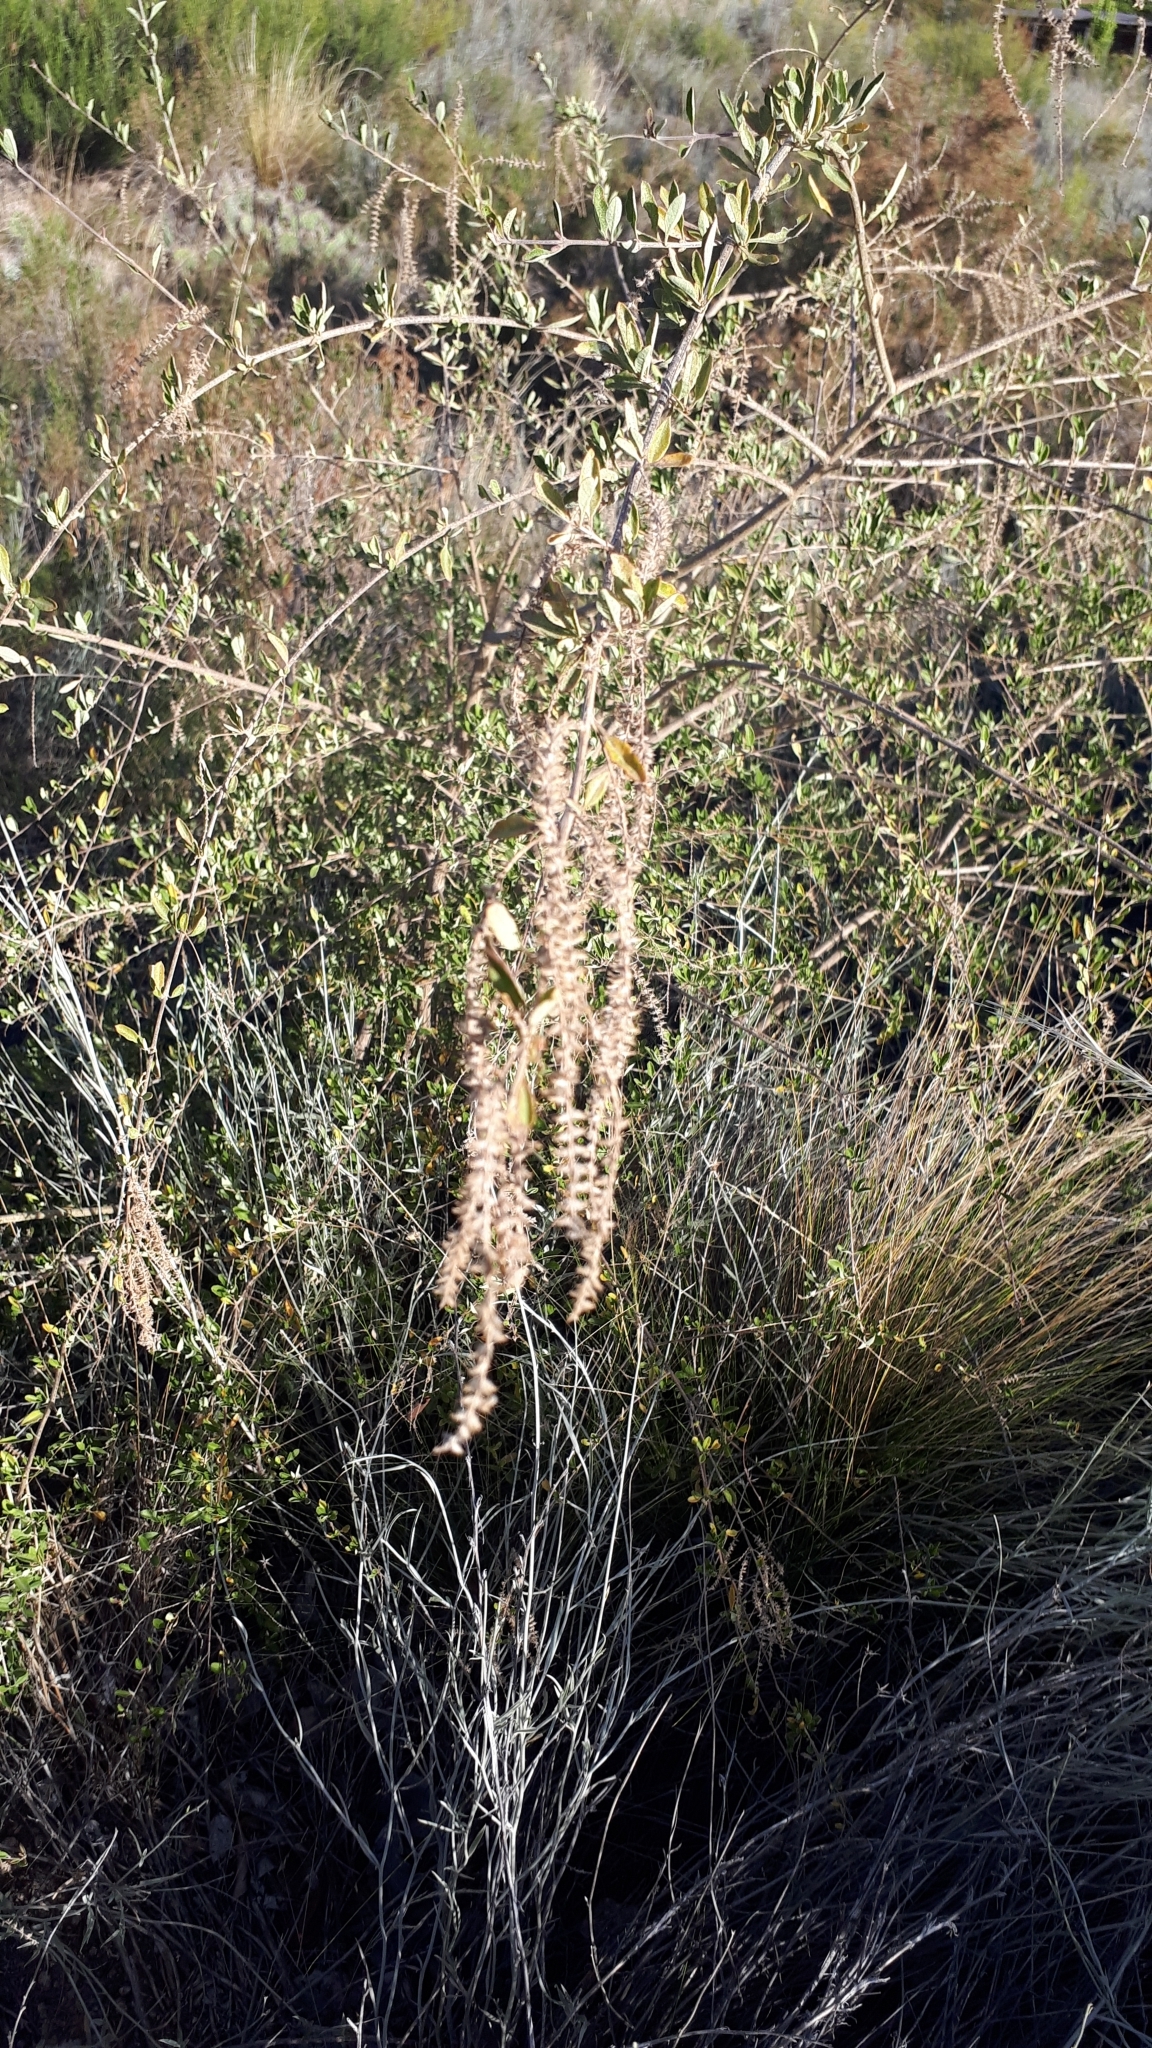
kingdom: Plantae
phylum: Tracheophyta
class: Magnoliopsida
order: Lamiales
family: Verbenaceae
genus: Aloysia
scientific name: Aloysia gratissima
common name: Common bee-brush
